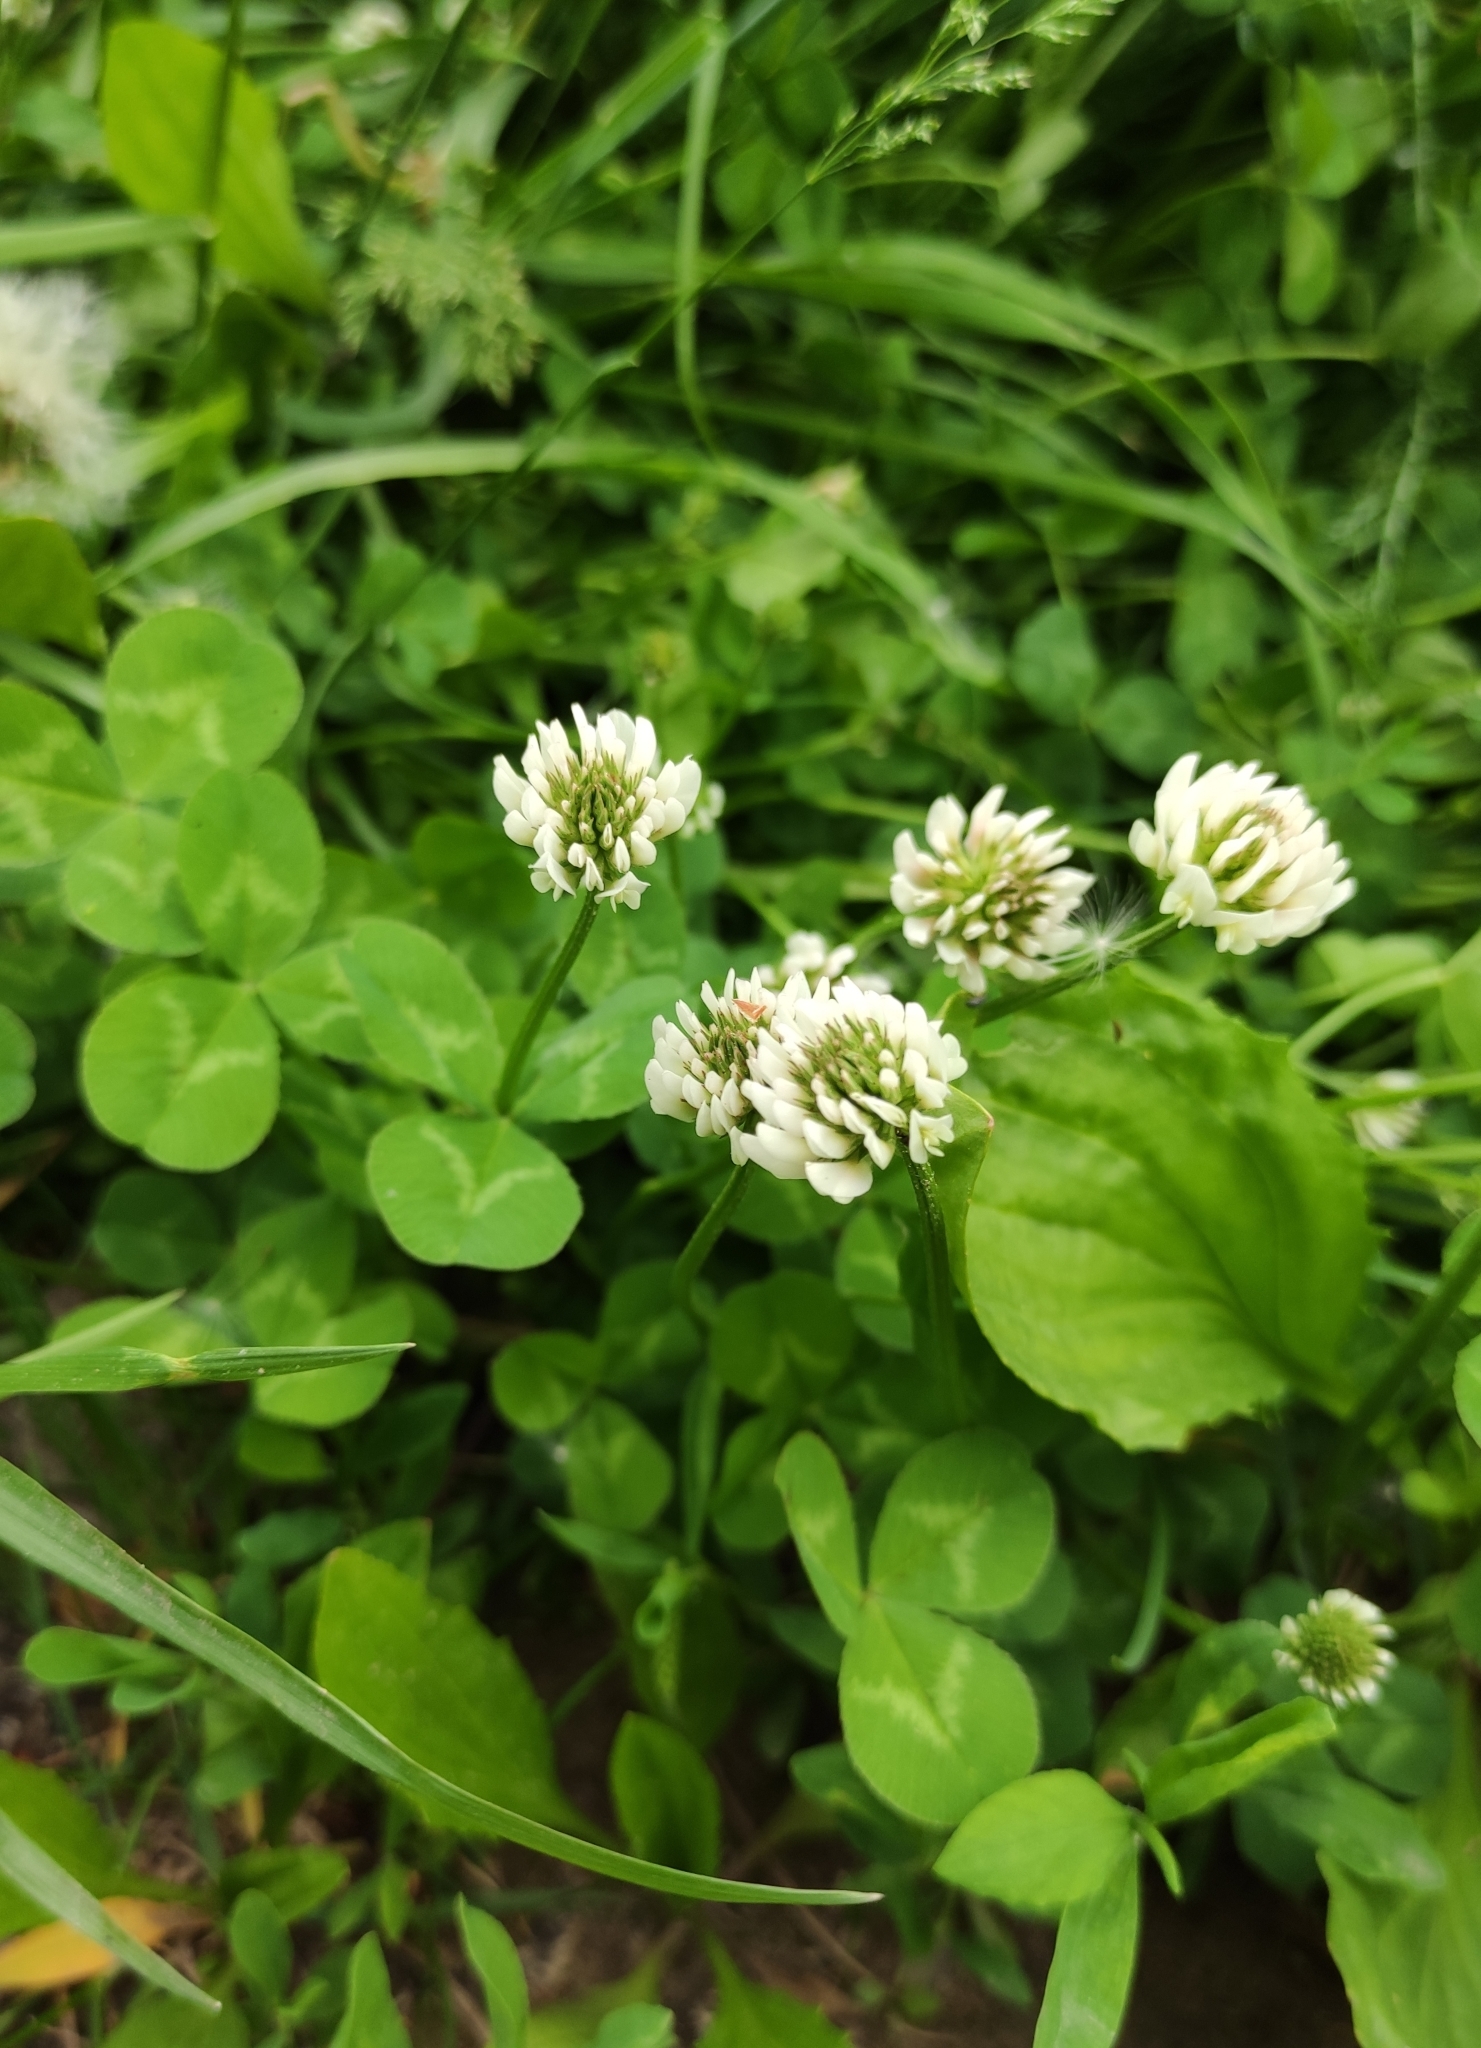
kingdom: Plantae
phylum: Tracheophyta
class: Magnoliopsida
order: Fabales
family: Fabaceae
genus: Trifolium
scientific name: Trifolium repens
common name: White clover
